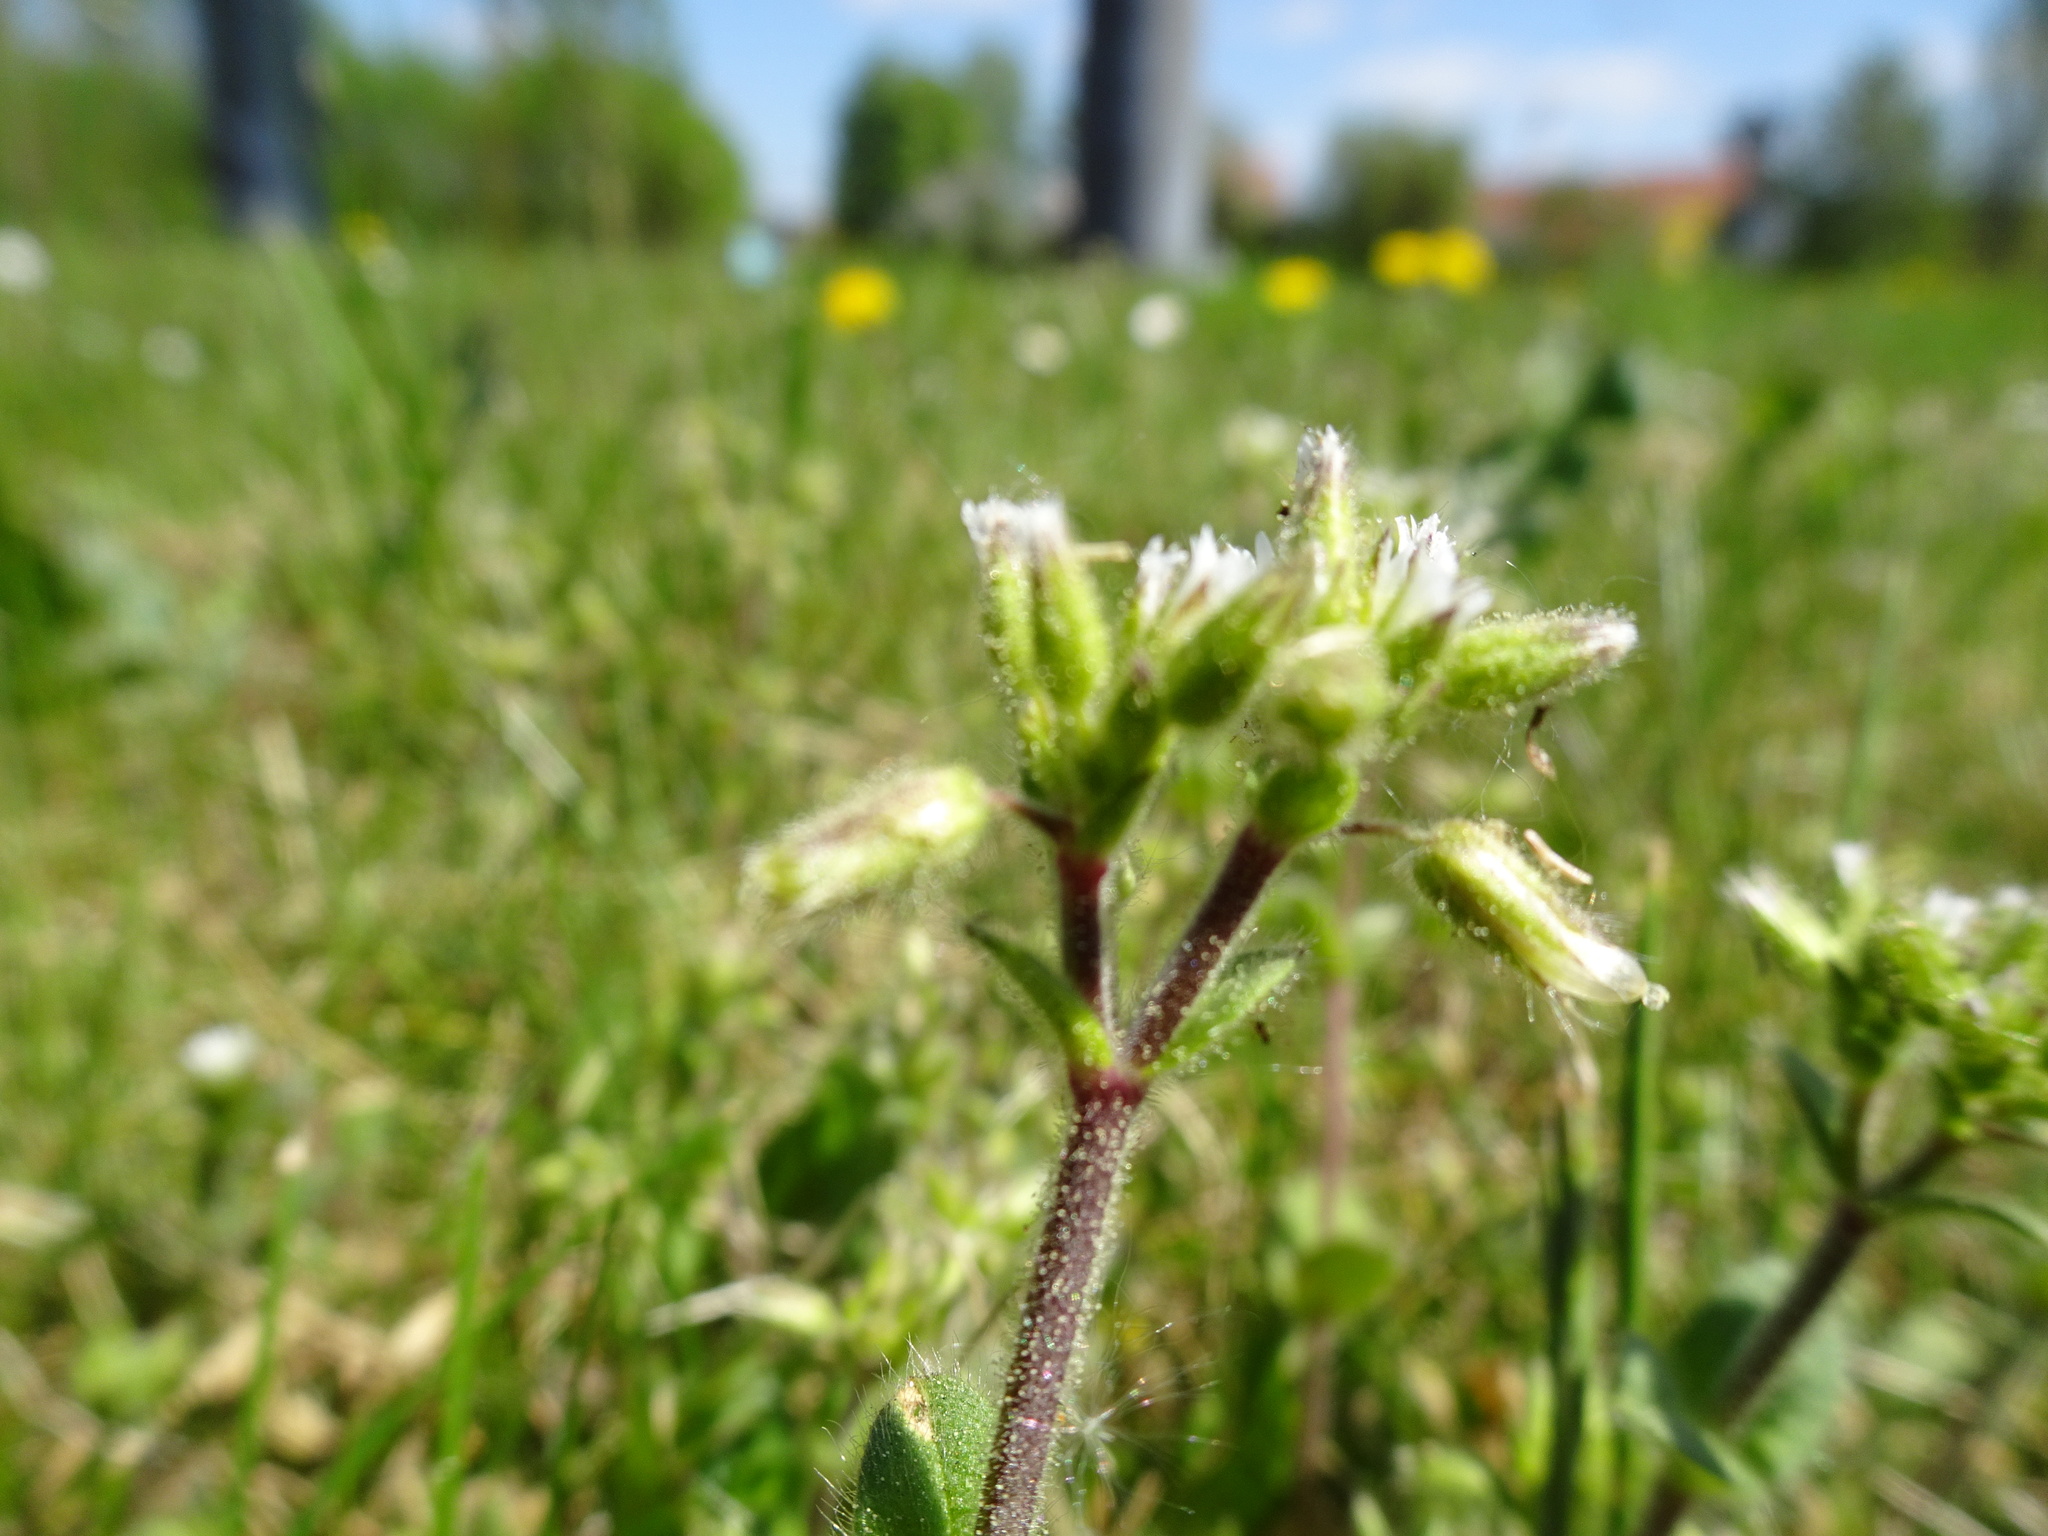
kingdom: Plantae
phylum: Tracheophyta
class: Magnoliopsida
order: Caryophyllales
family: Caryophyllaceae
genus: Cerastium
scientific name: Cerastium glomeratum
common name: Sticky chickweed
